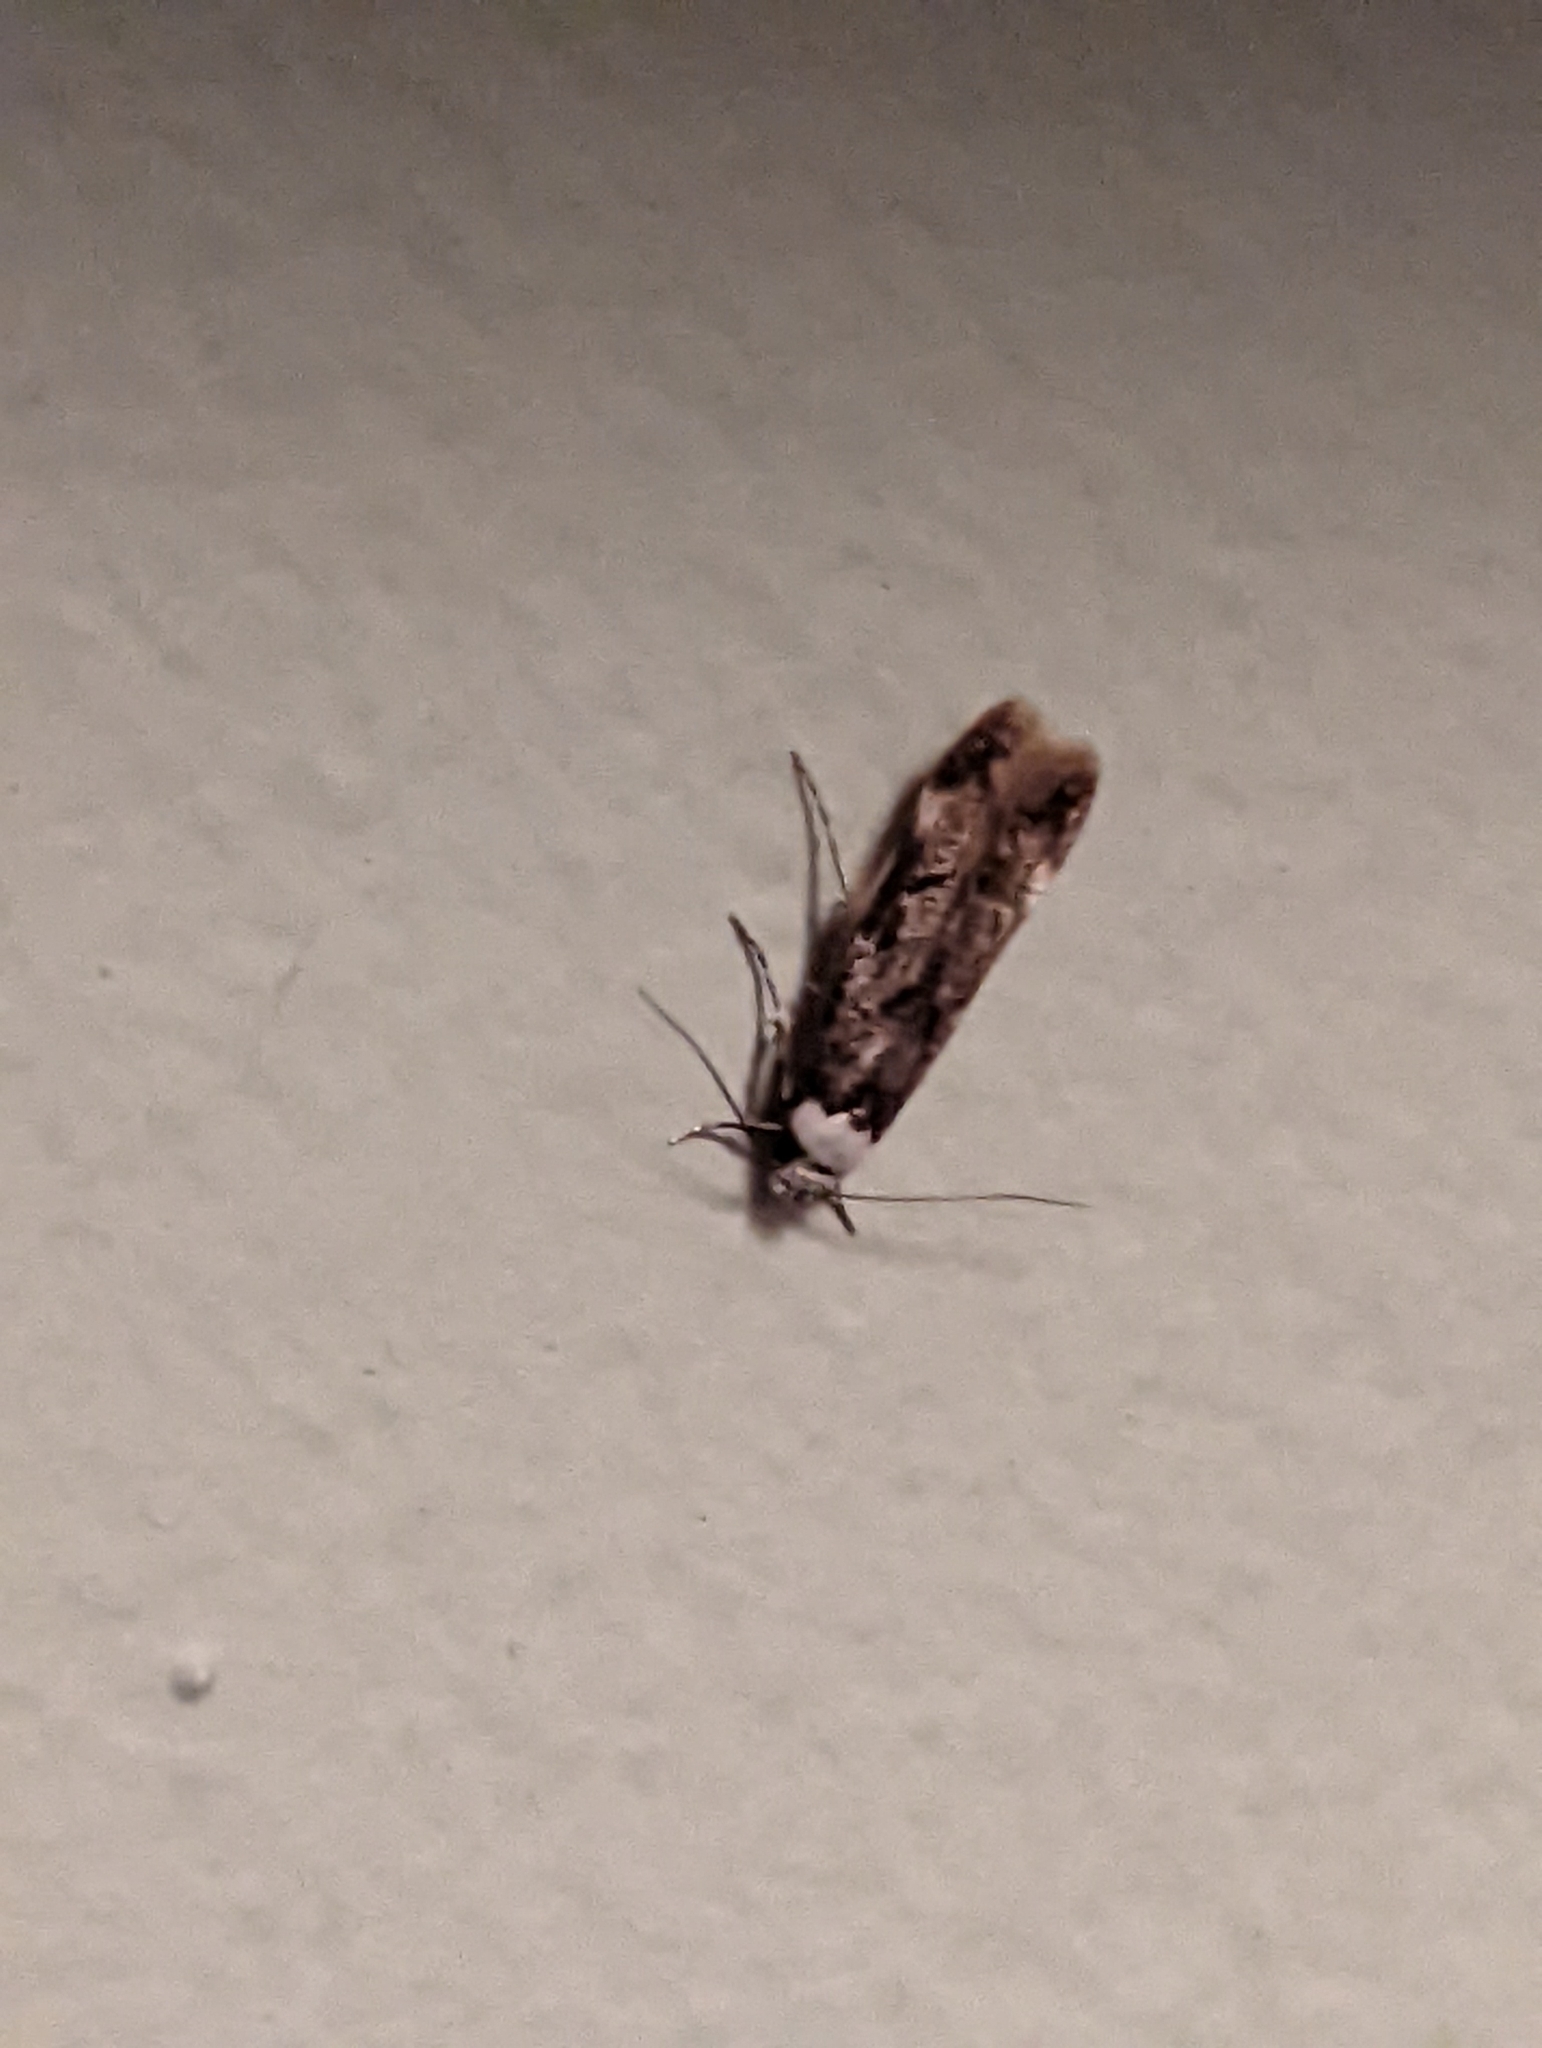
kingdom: Animalia
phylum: Arthropoda
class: Insecta
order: Lepidoptera
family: Oecophoridae
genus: Endrosis
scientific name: Endrosis sarcitrella
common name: White-shouldered house moth
